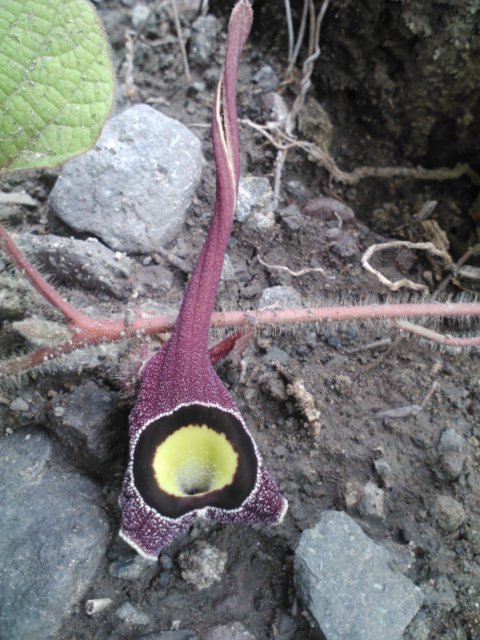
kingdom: Plantae
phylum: Tracheophyta
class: Magnoliopsida
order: Piperales
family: Aristolochiaceae
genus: Aristolochia
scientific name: Aristolochia foetida
